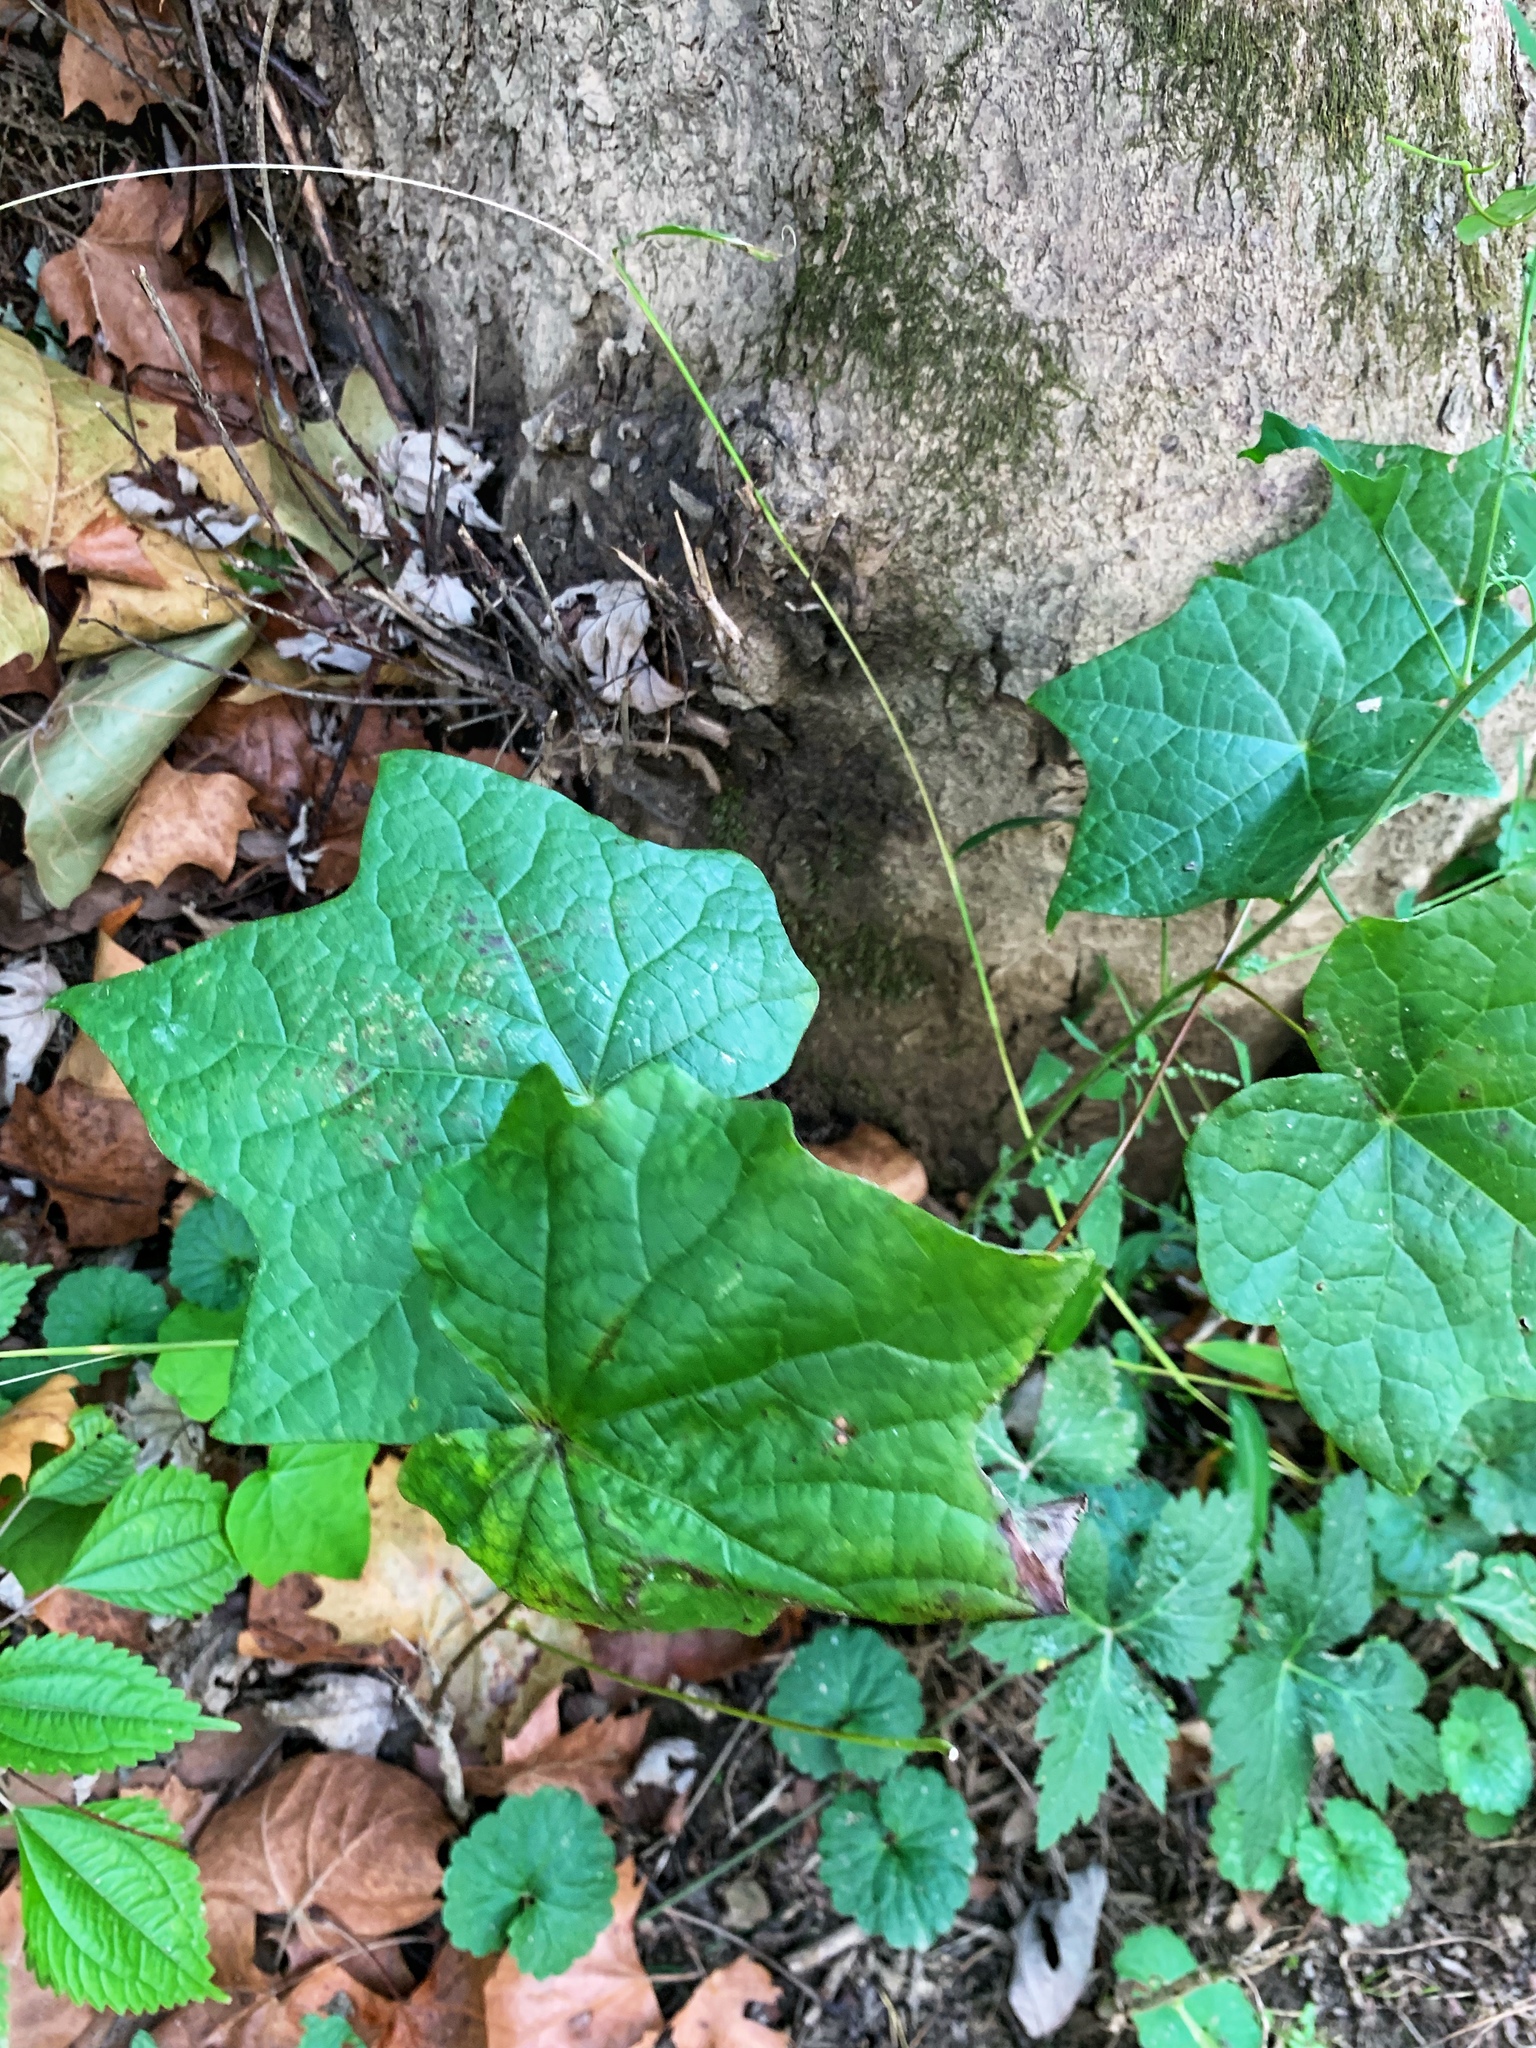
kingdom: Plantae
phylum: Tracheophyta
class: Magnoliopsida
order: Ranunculales
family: Menispermaceae
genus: Menispermum
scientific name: Menispermum canadense
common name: Moonseed
